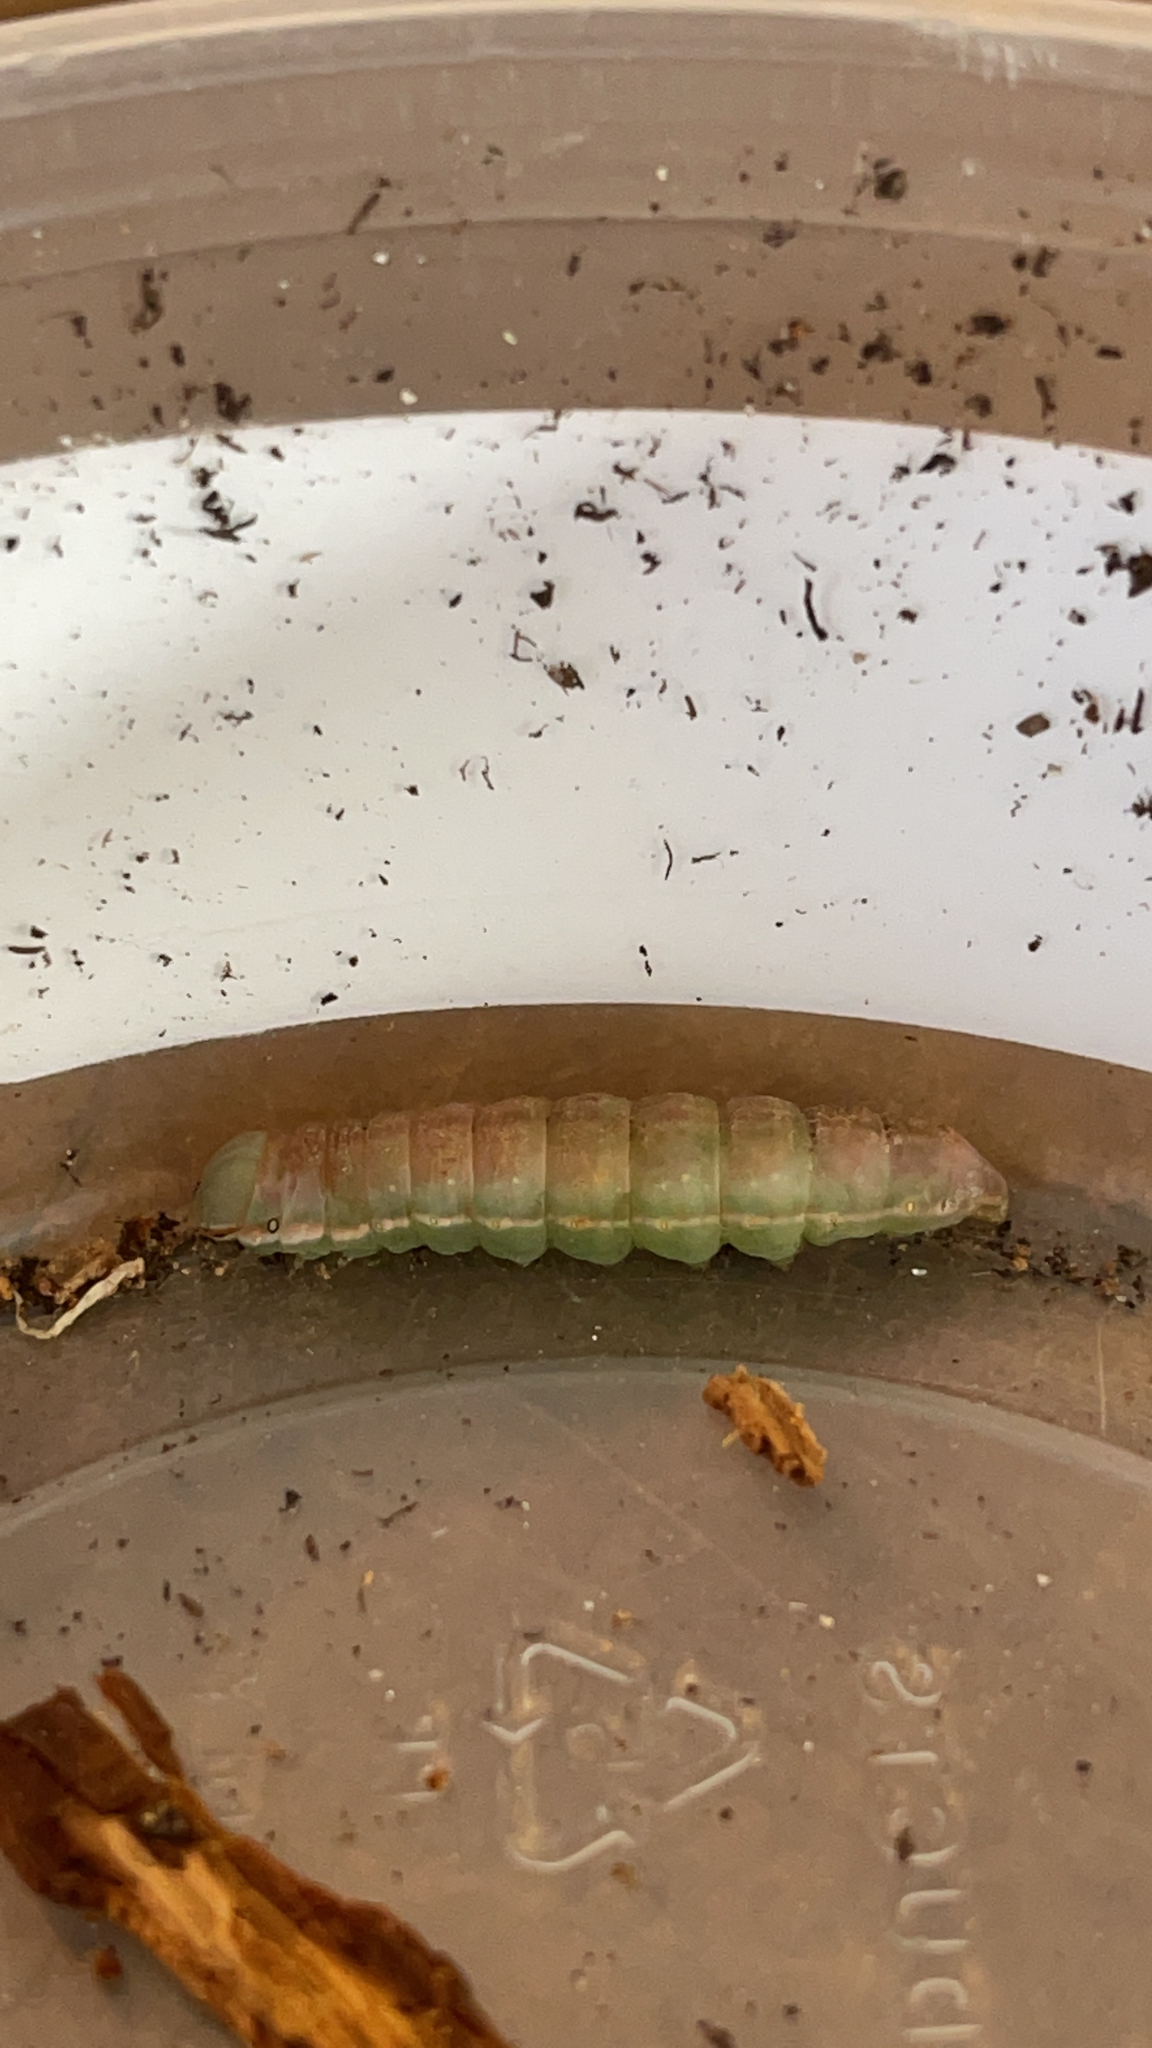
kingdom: Animalia
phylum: Arthropoda
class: Insecta
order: Lepidoptera
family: Notodontidae
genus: Peridea
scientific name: Peridea angulosa
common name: Angulose prominent
